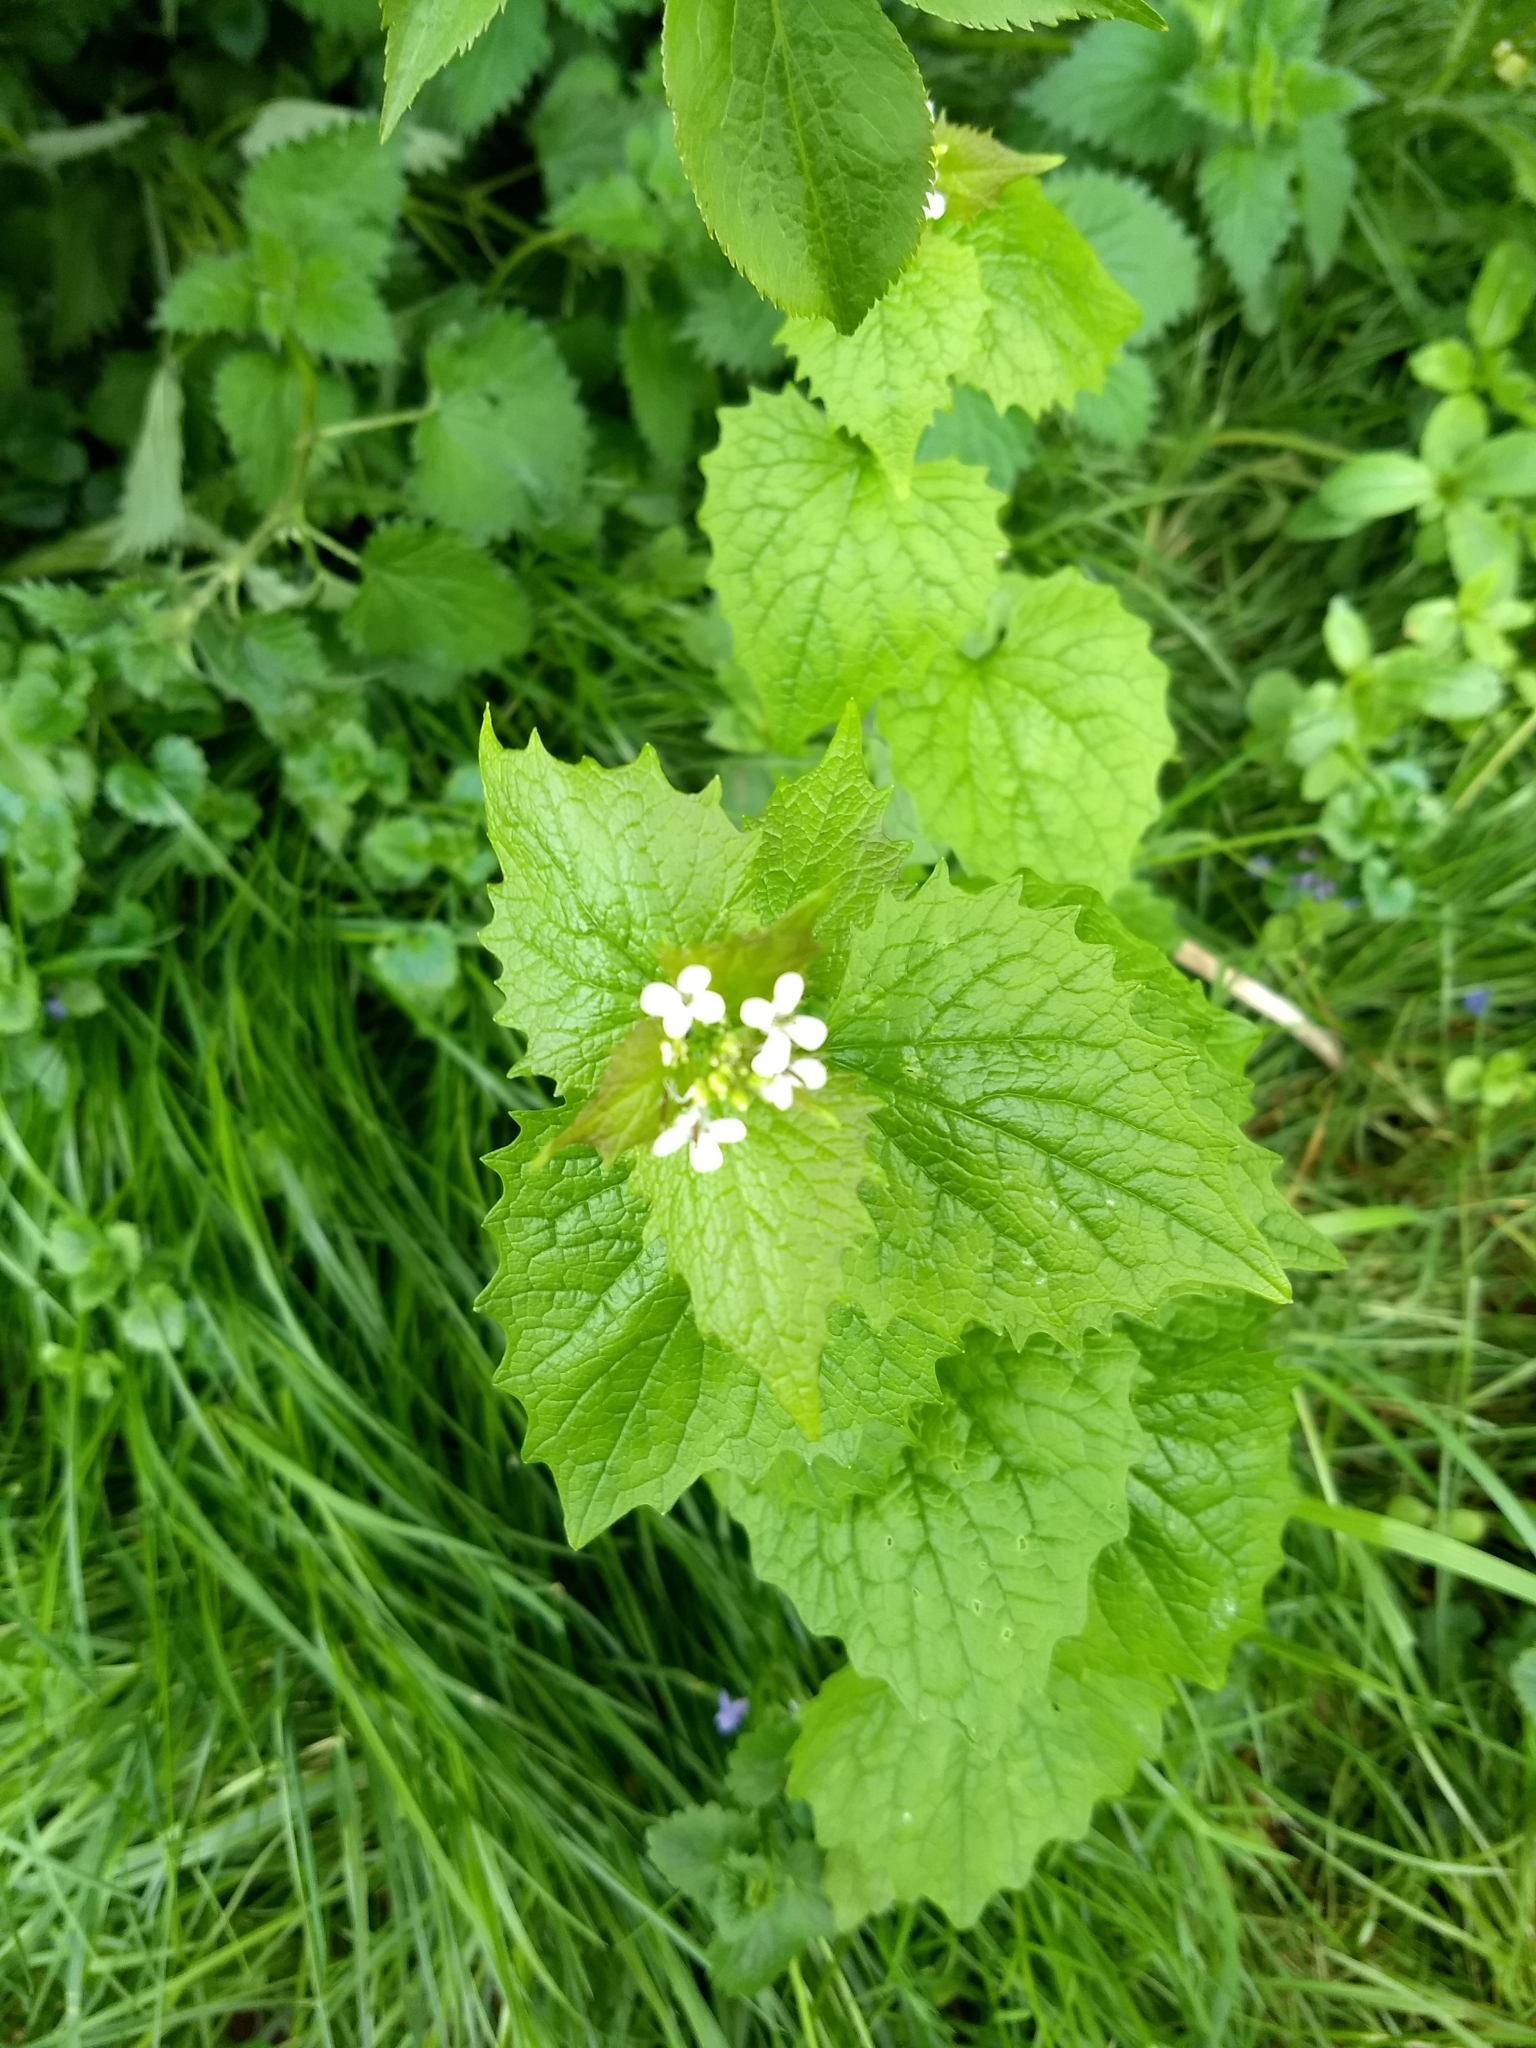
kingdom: Plantae
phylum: Tracheophyta
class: Magnoliopsida
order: Brassicales
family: Brassicaceae
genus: Alliaria
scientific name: Alliaria petiolata
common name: Garlic mustard
